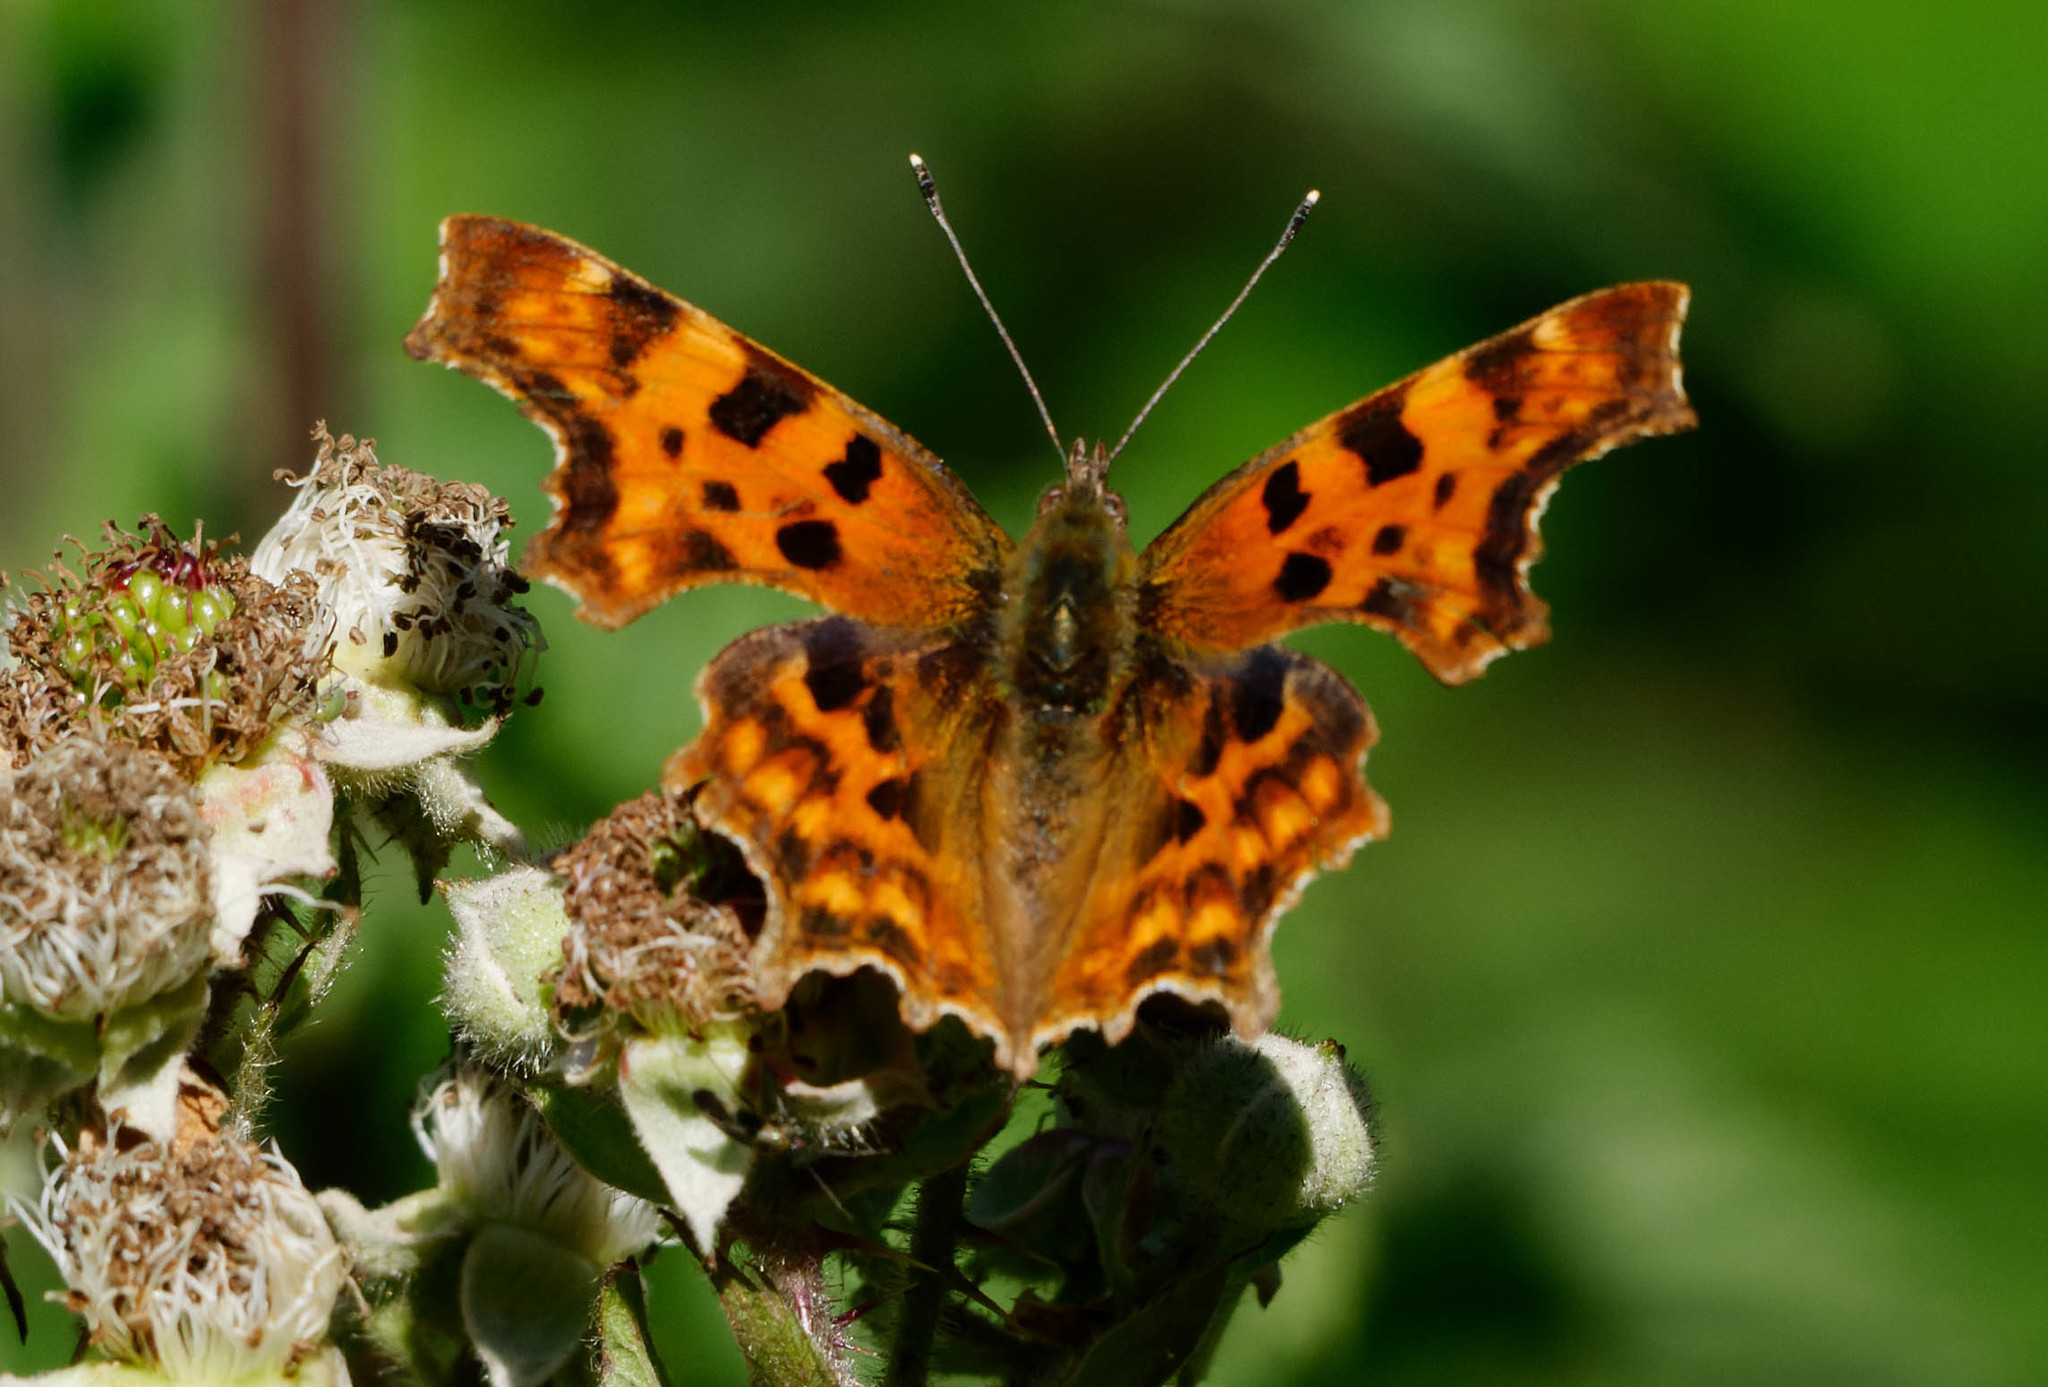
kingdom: Animalia
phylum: Arthropoda
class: Insecta
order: Lepidoptera
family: Nymphalidae
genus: Polygonia
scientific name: Polygonia c-album
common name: Comma
